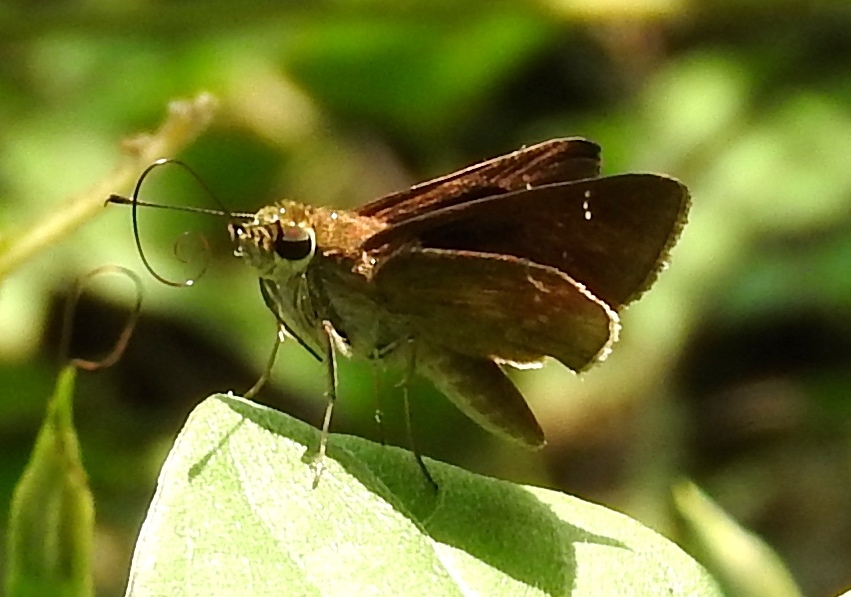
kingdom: Animalia
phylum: Arthropoda
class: Insecta
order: Lepidoptera
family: Hesperiidae
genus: Lerema
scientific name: Lerema accius
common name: Clouded skipper
